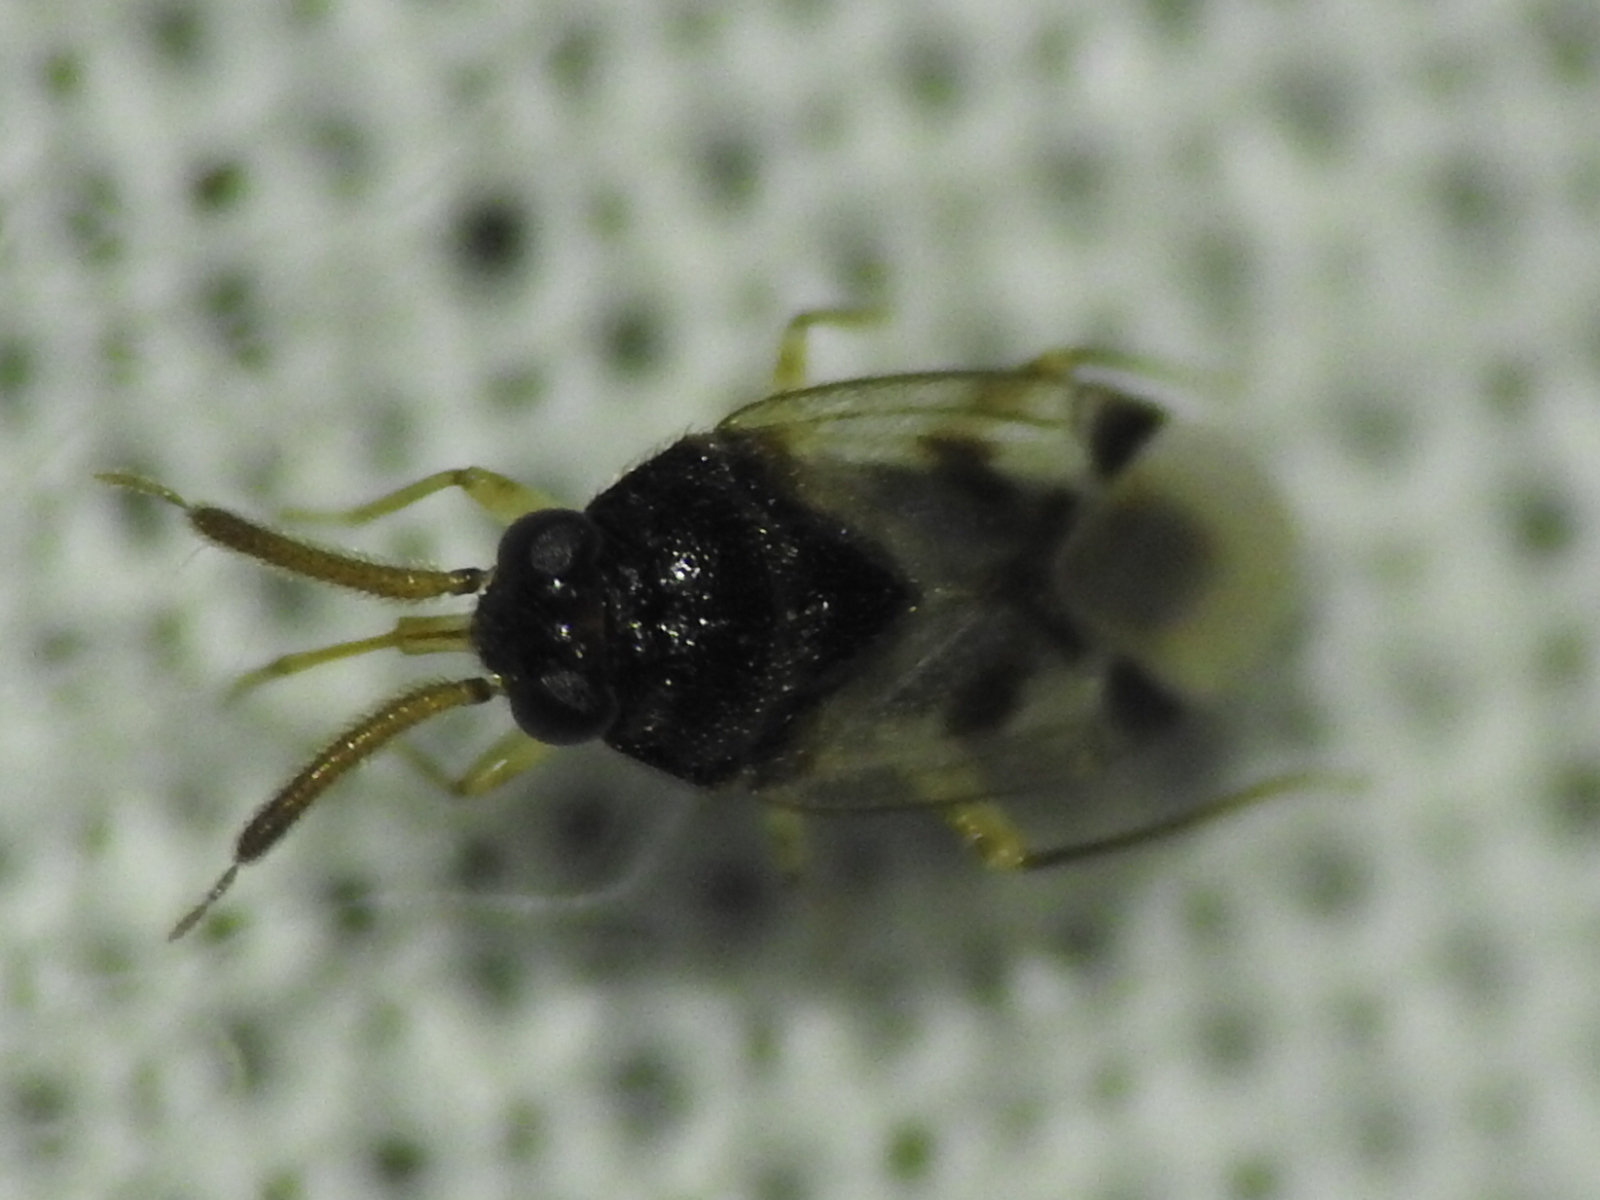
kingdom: Animalia
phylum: Arthropoda
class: Insecta
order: Hemiptera
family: Miridae
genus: Corticoris
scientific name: Corticoris signatus
